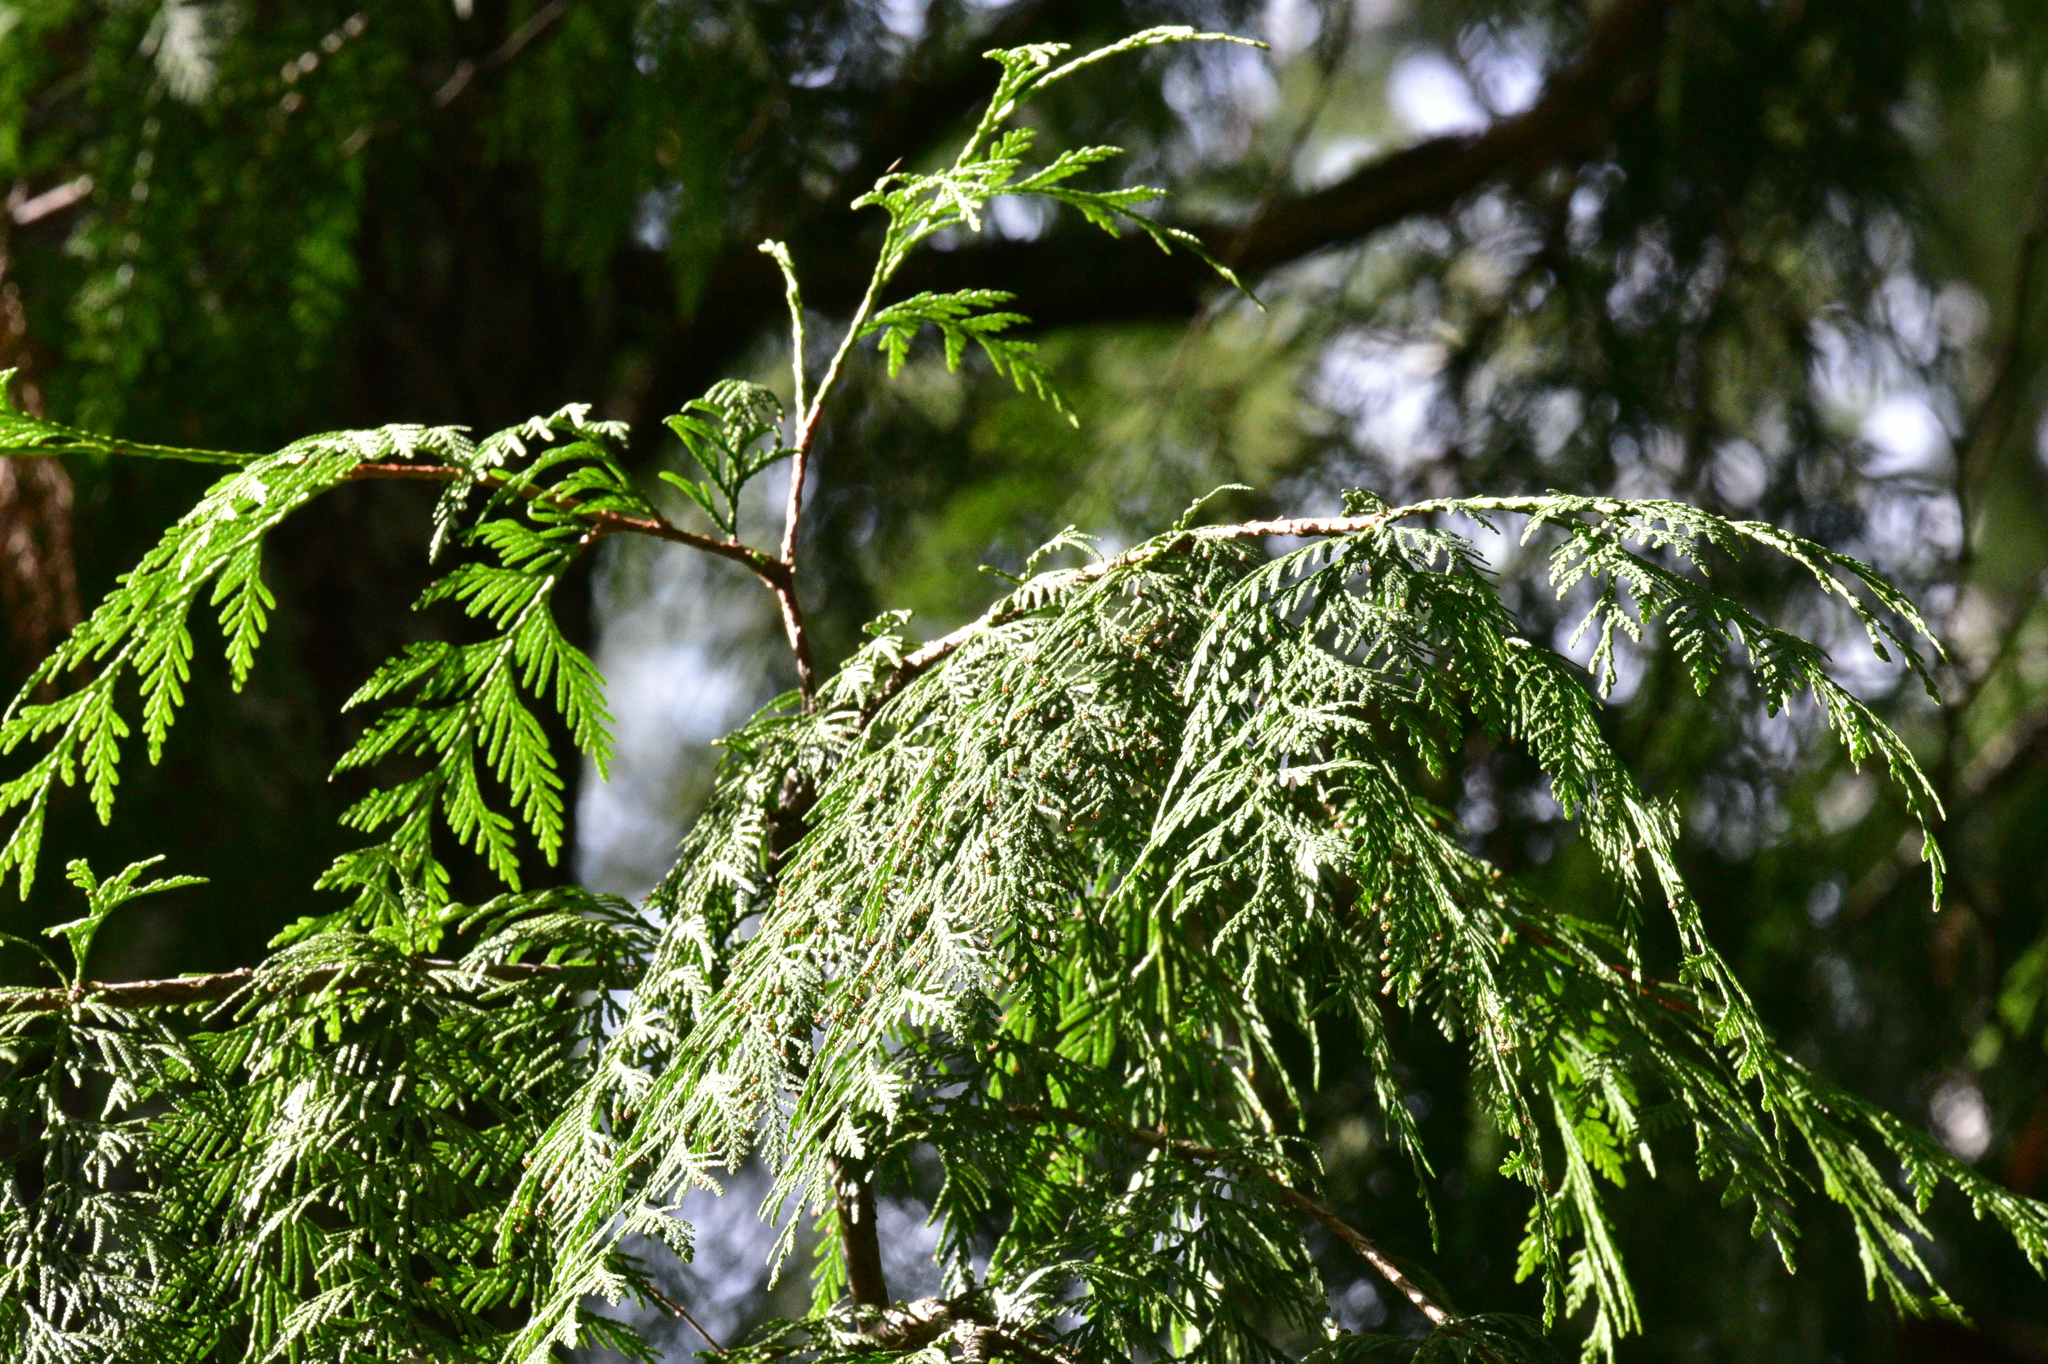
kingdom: Plantae
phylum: Tracheophyta
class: Pinopsida
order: Pinales
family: Cupressaceae
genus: Thuja
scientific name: Thuja plicata
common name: Western red-cedar
